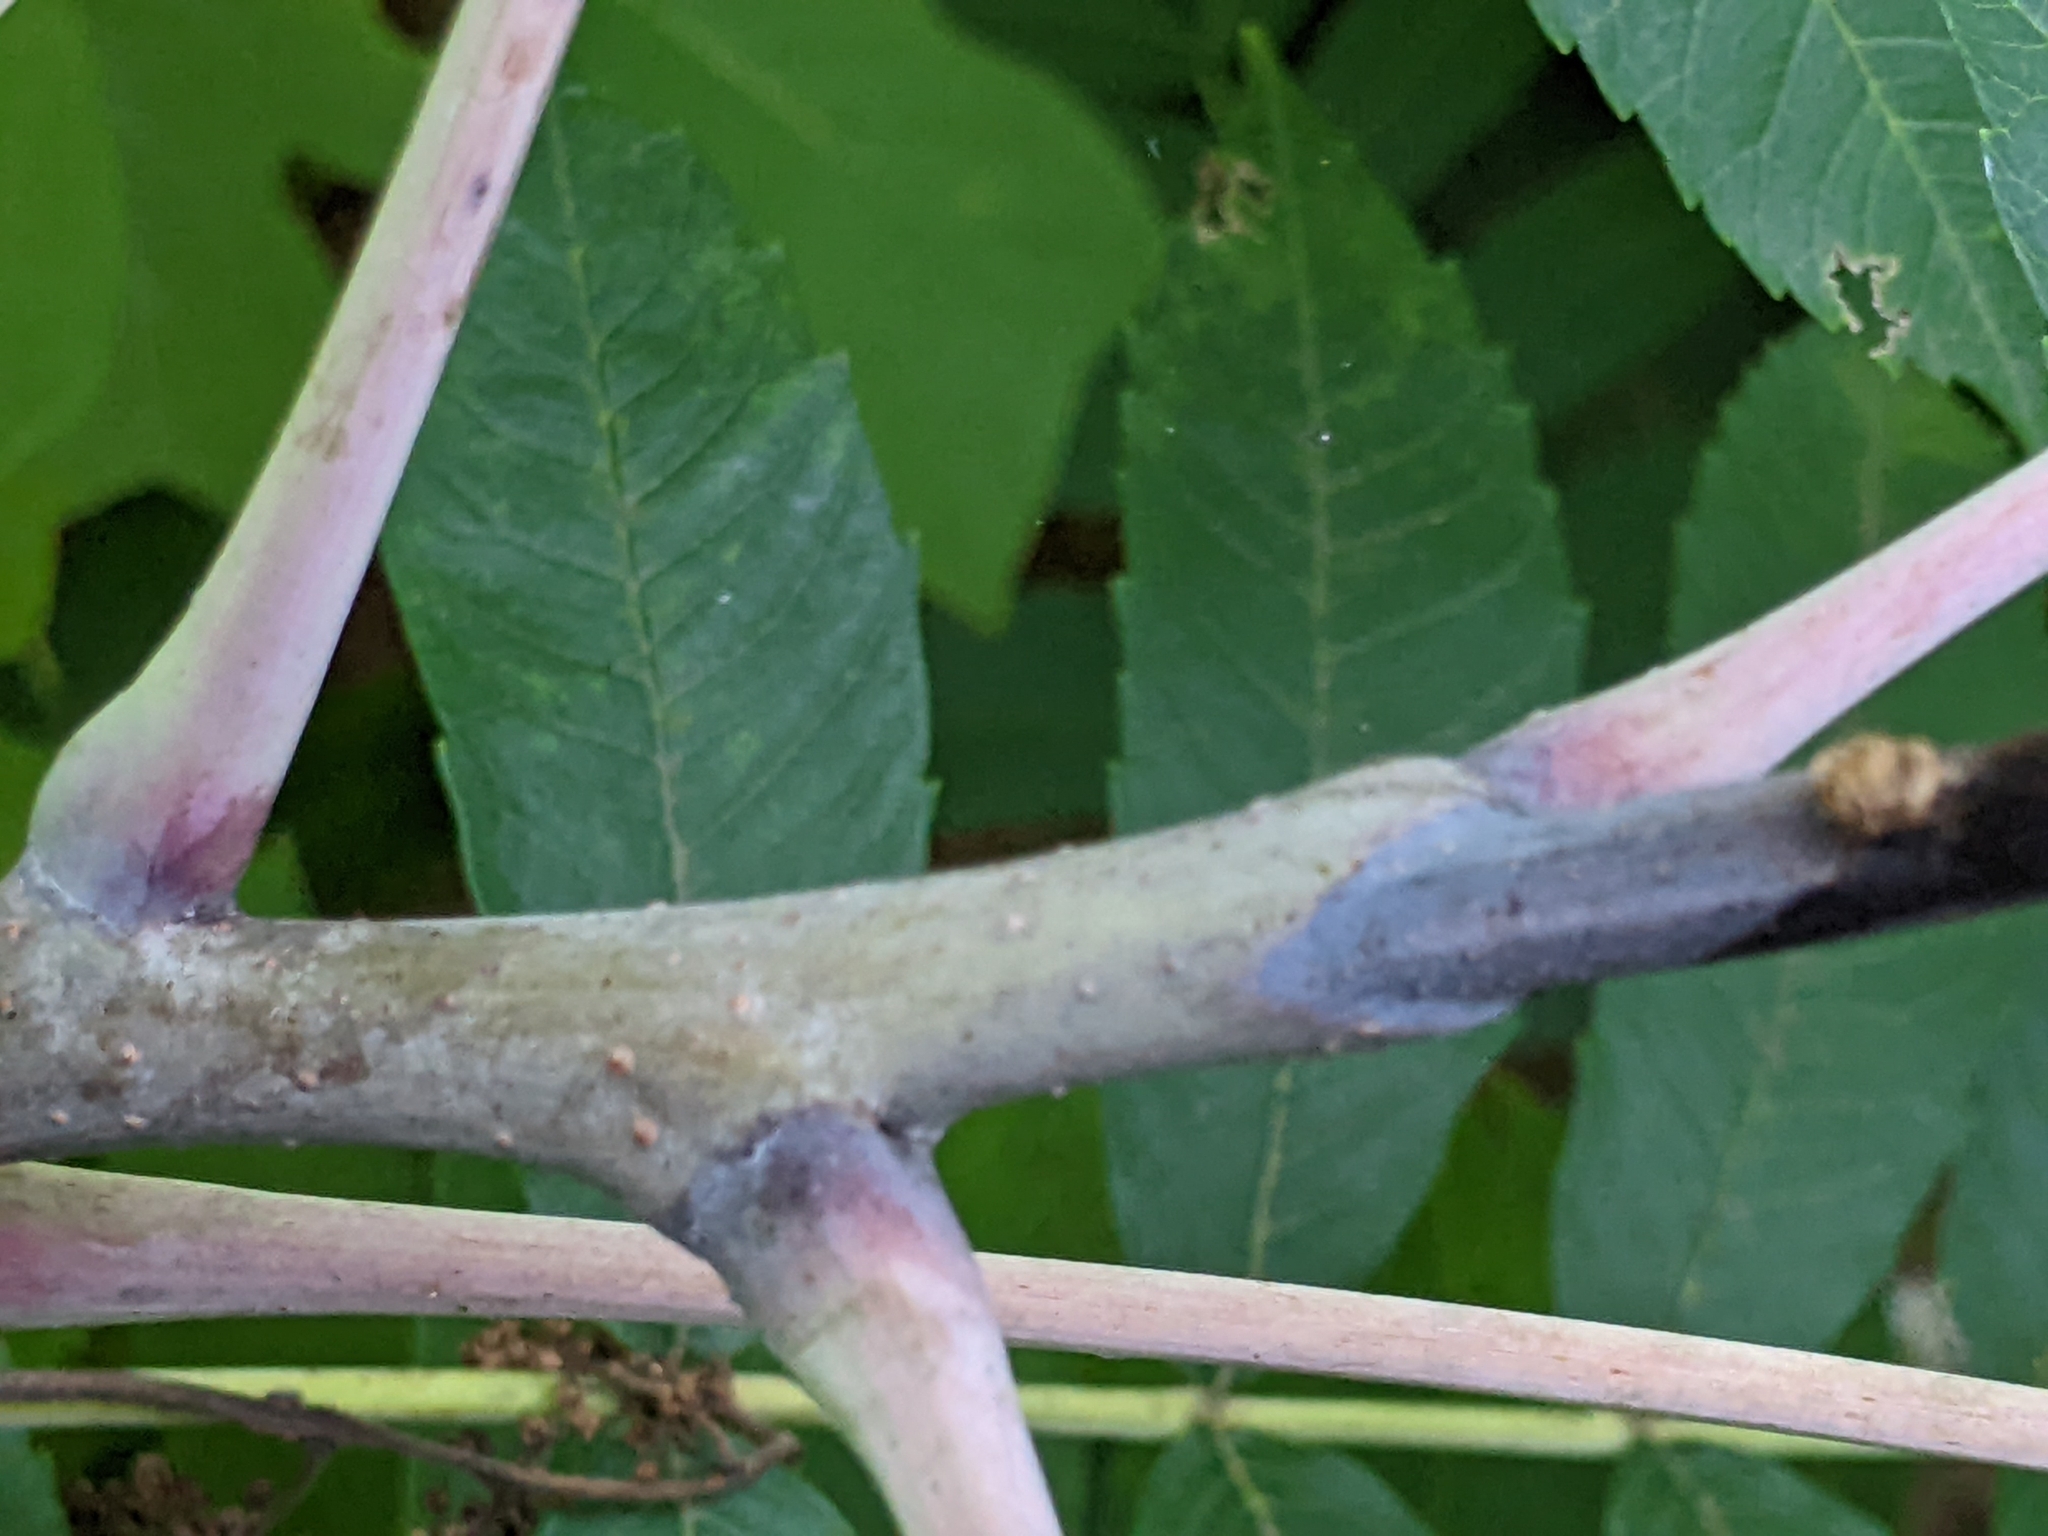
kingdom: Animalia
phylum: Arthropoda
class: Insecta
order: Hemiptera
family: Aphididae
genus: Melaphis
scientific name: Melaphis rhois
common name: Sumac gall aphid
